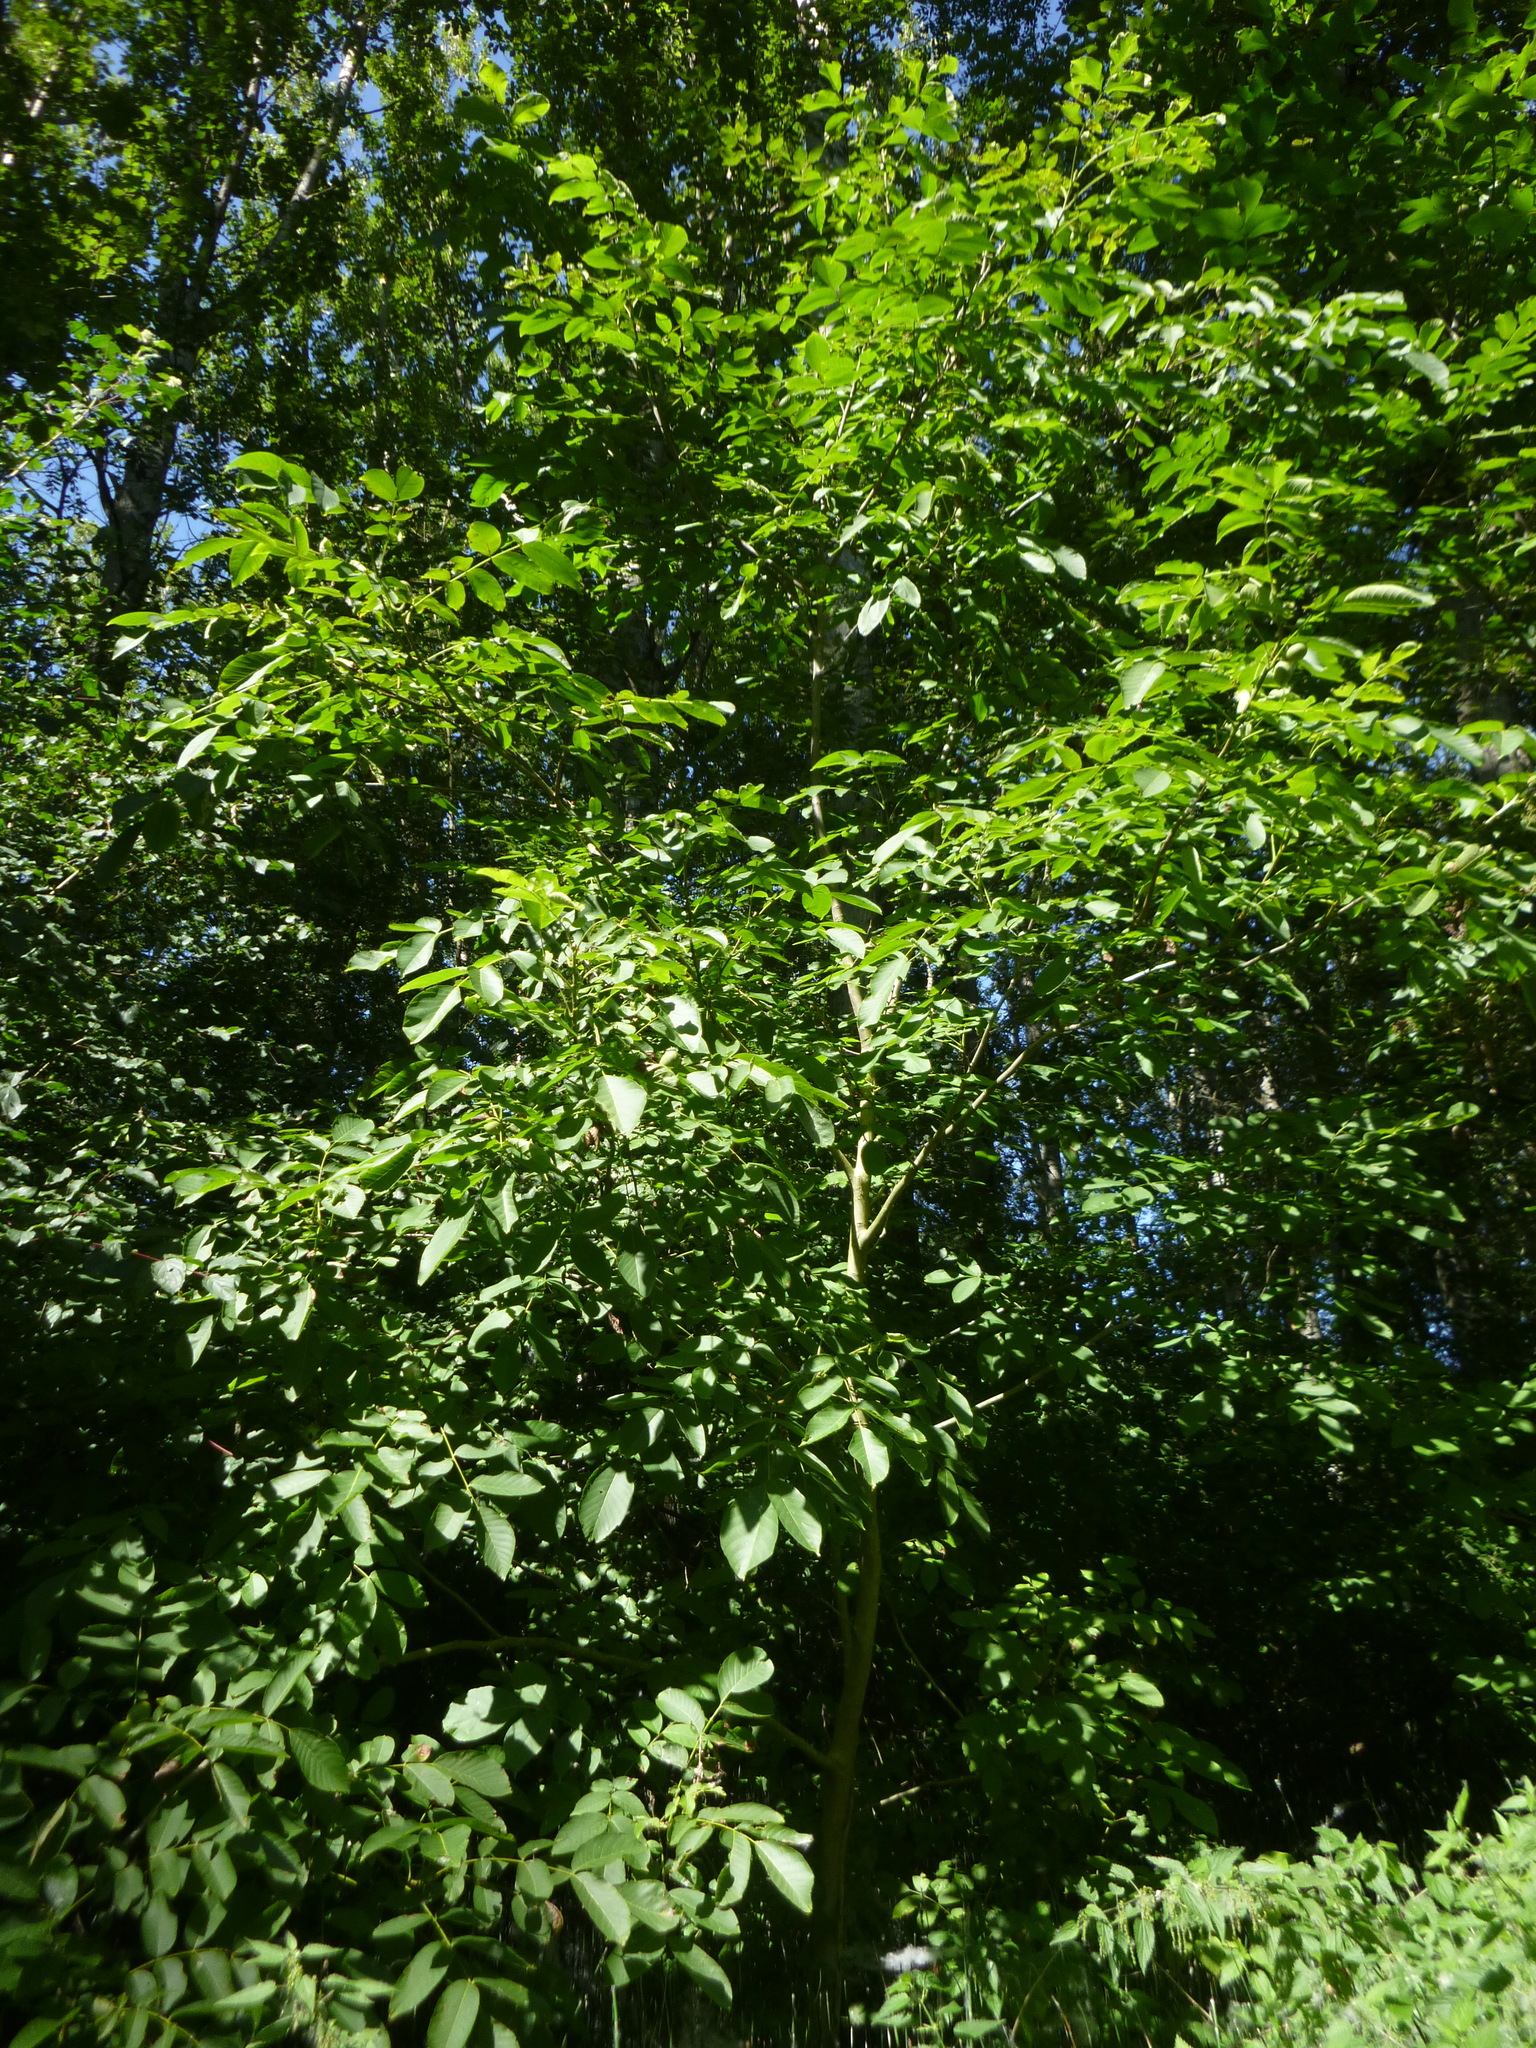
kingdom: Plantae
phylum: Tracheophyta
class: Magnoliopsida
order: Fagales
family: Juglandaceae
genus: Juglans
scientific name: Juglans regia
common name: Walnut
